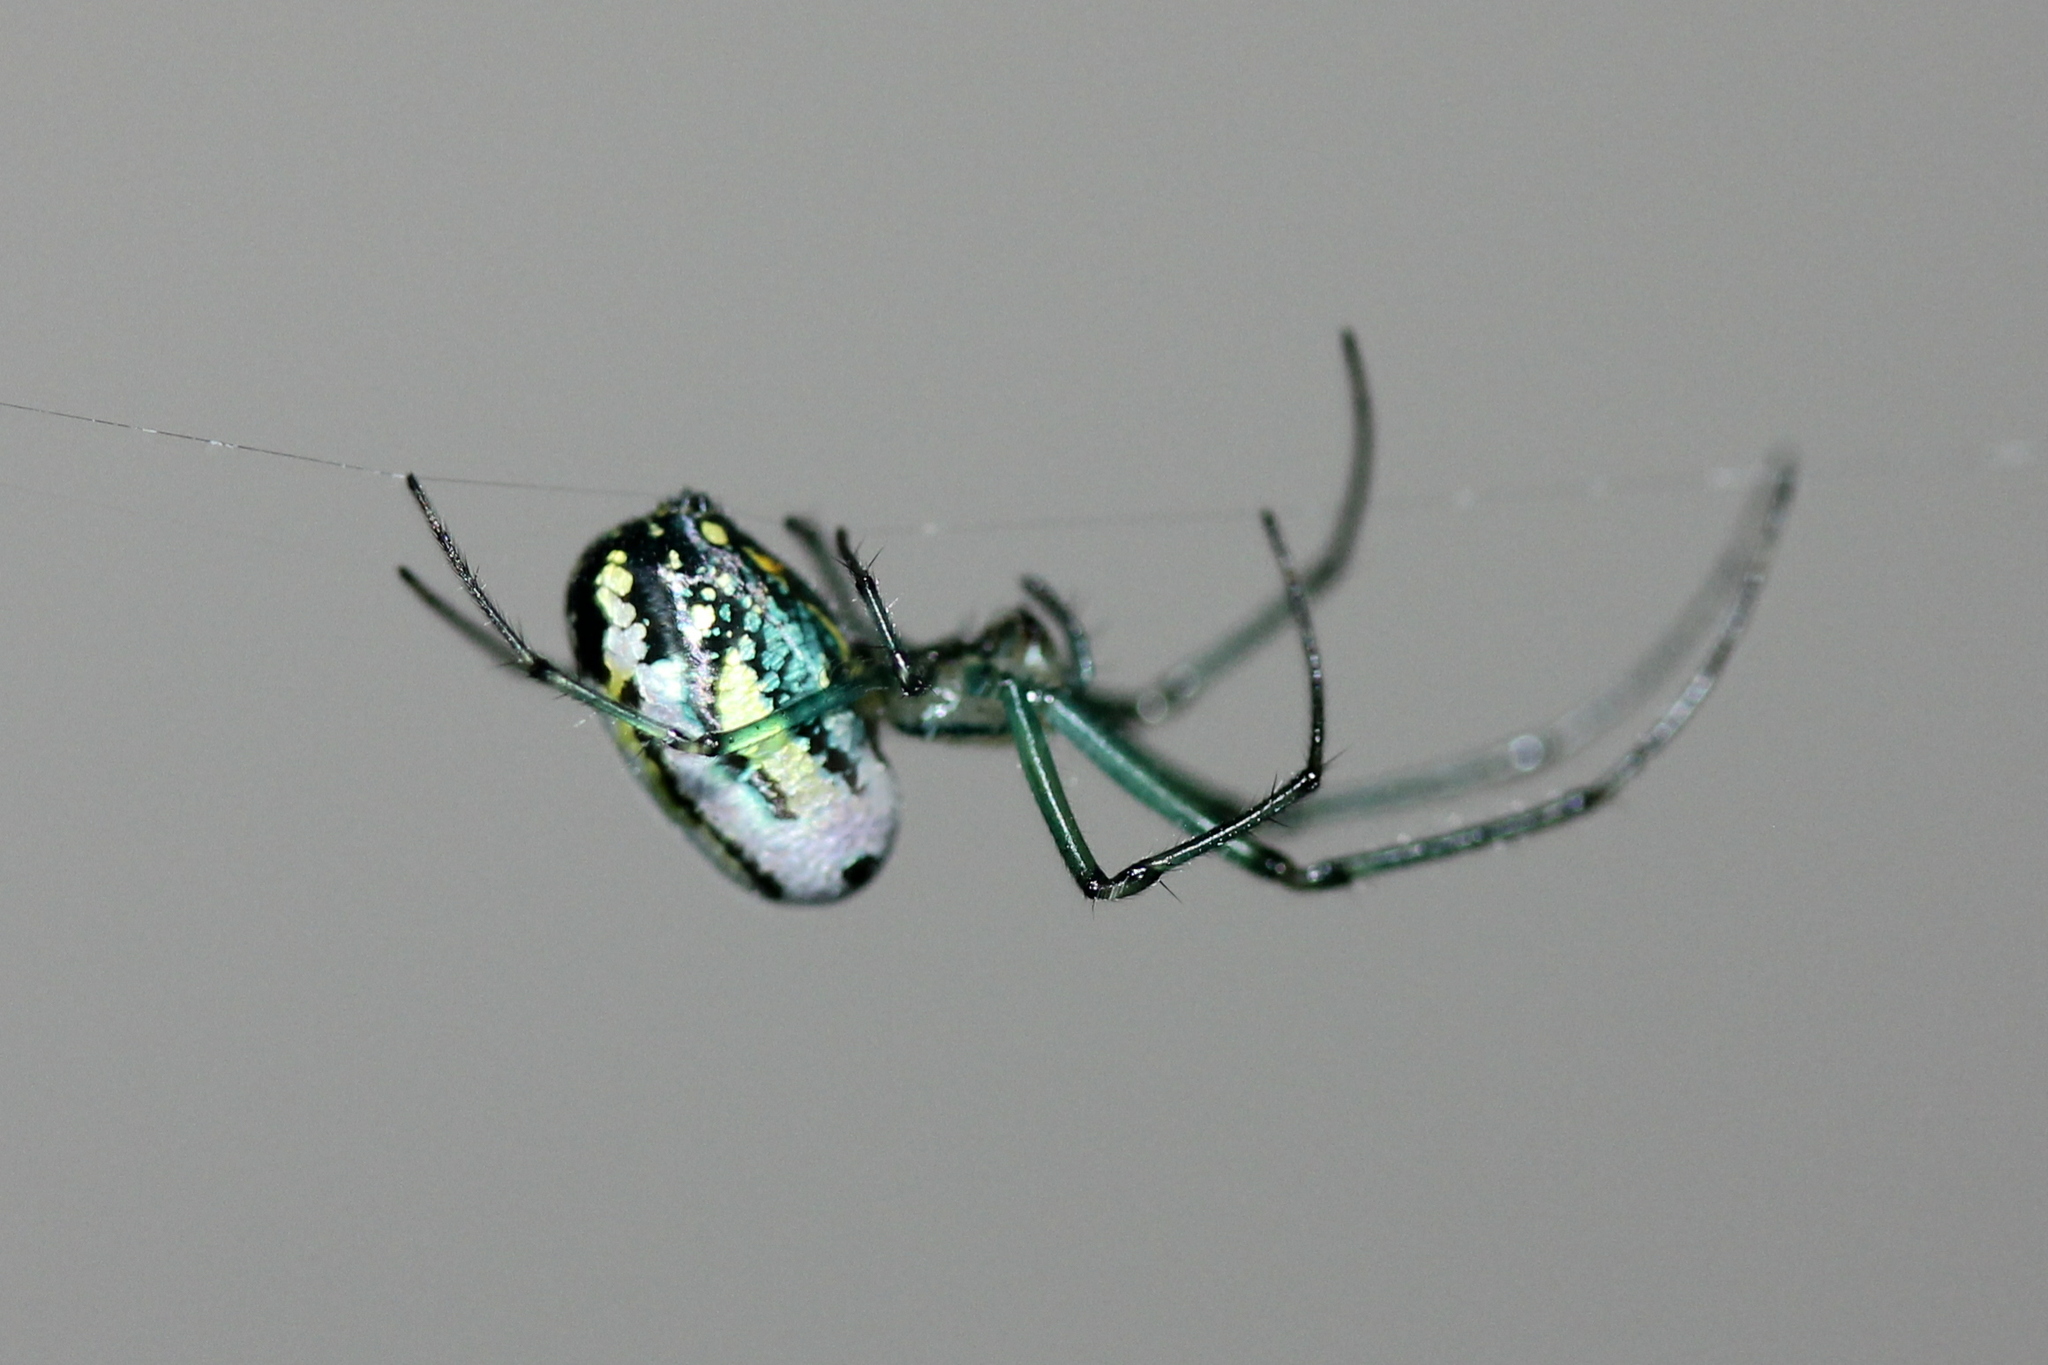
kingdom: Animalia
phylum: Arthropoda
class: Arachnida
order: Araneae
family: Tetragnathidae
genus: Leucauge
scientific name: Leucauge venusta
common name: Longjawed orb weavers
